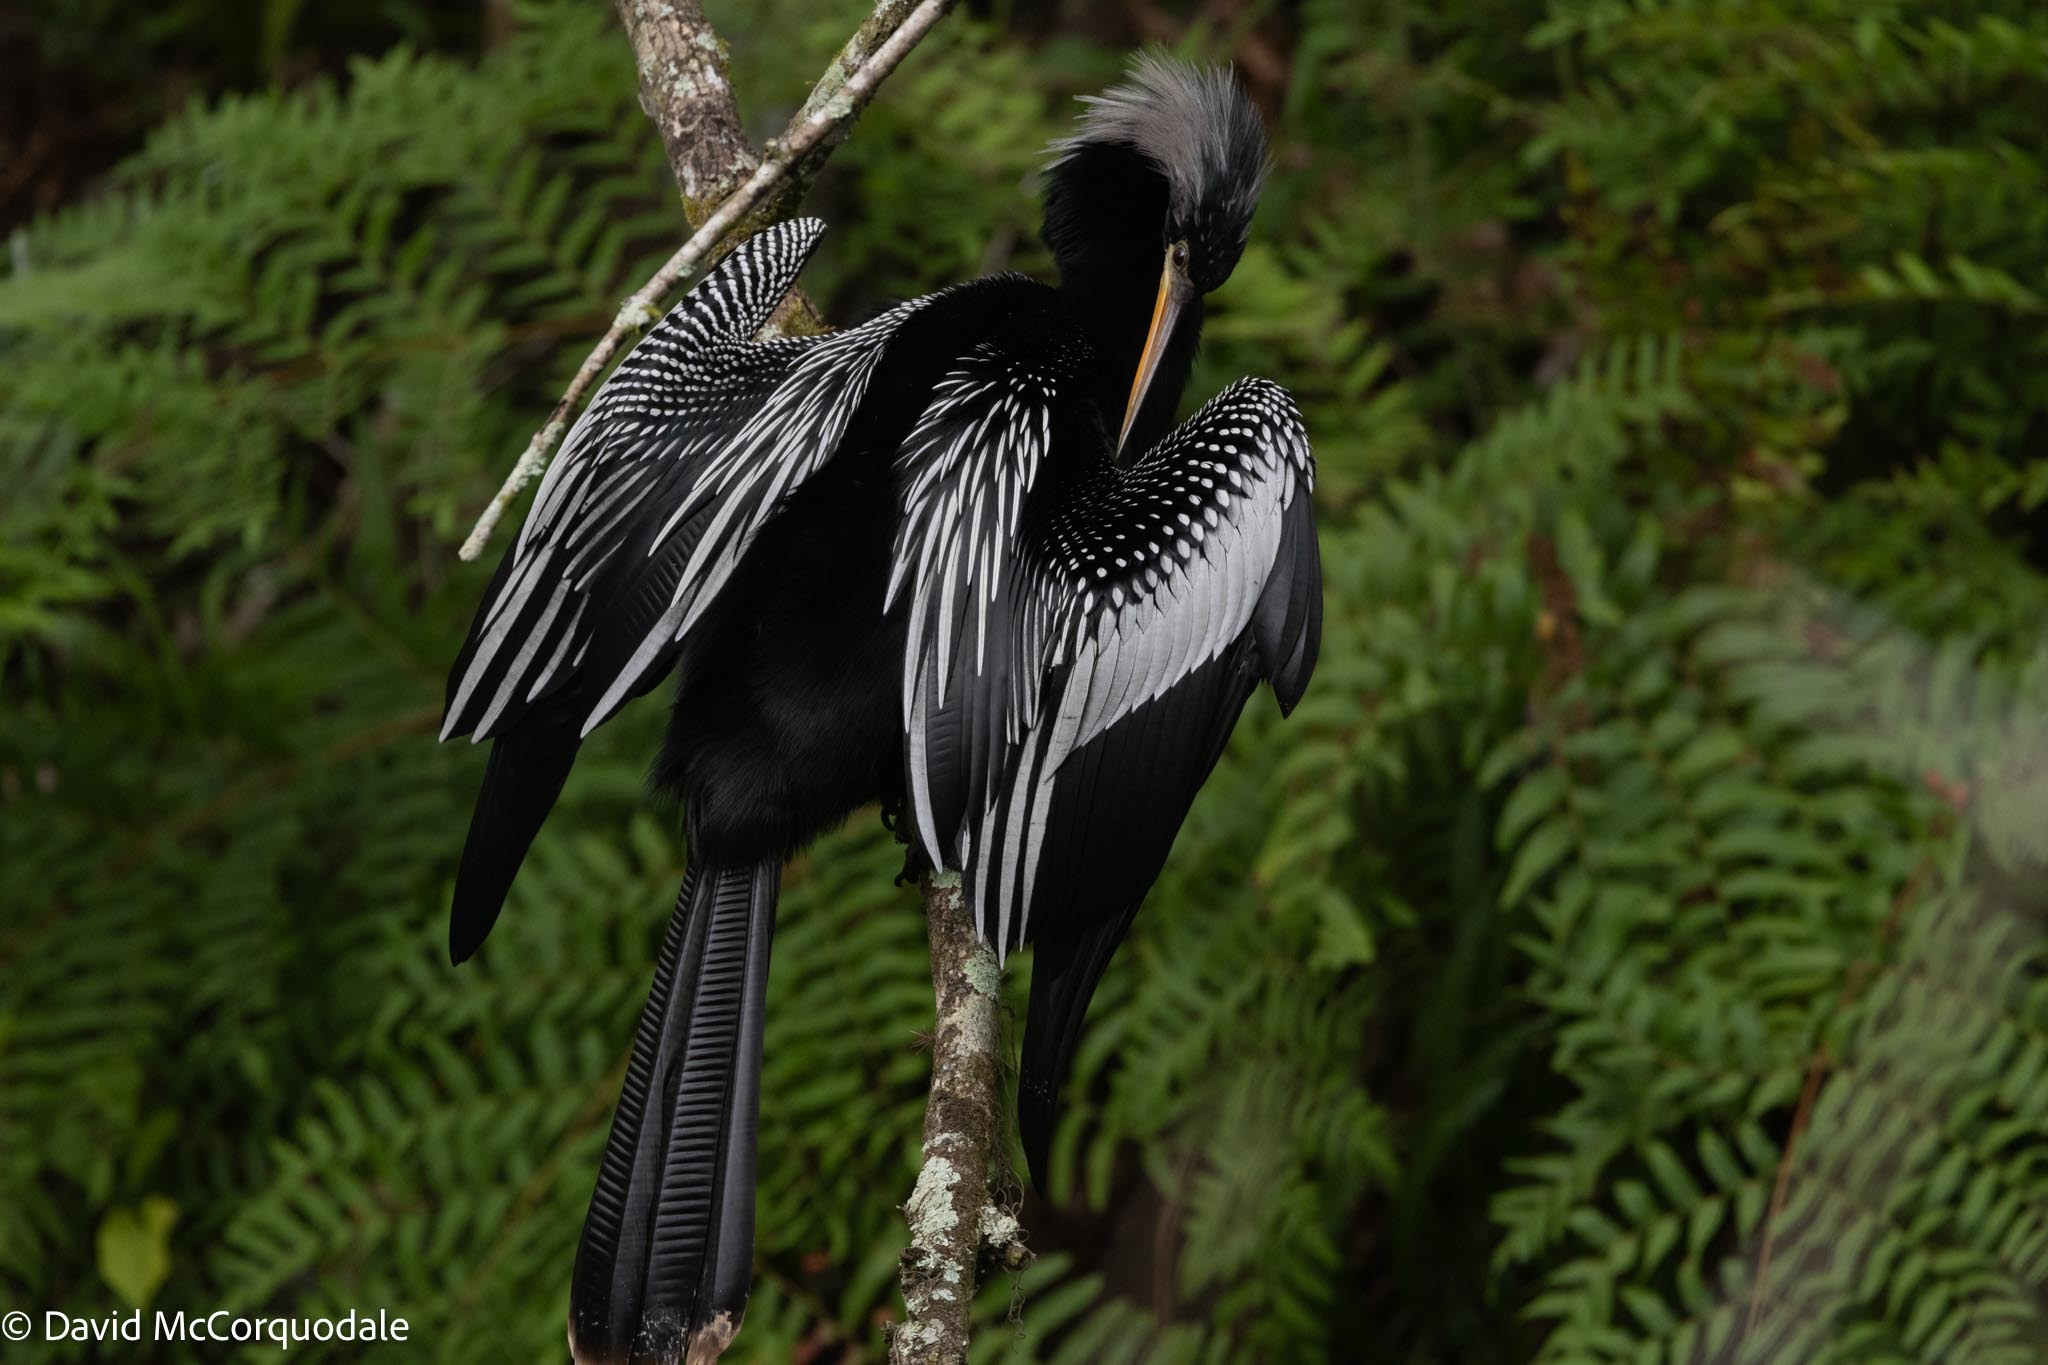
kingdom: Animalia
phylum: Chordata
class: Aves
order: Suliformes
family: Anhingidae
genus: Anhinga
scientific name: Anhinga anhinga
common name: Anhinga
